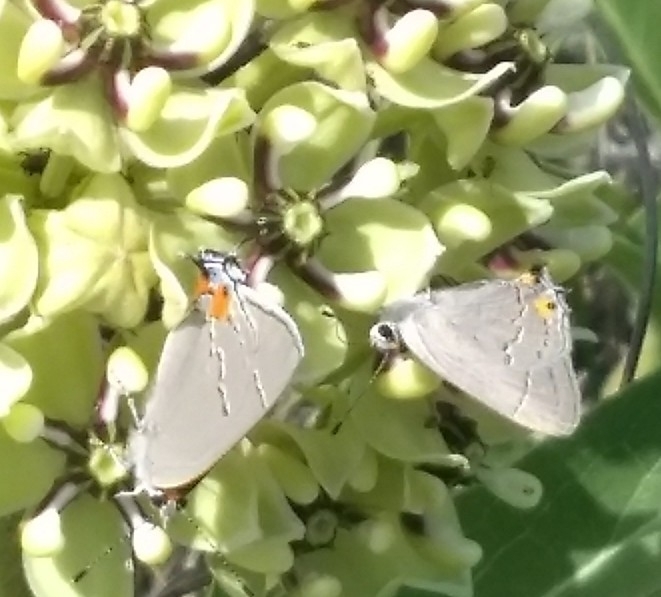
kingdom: Animalia
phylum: Arthropoda
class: Insecta
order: Lepidoptera
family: Lycaenidae
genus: Strymon
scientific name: Strymon melinus
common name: Gray hairstreak
